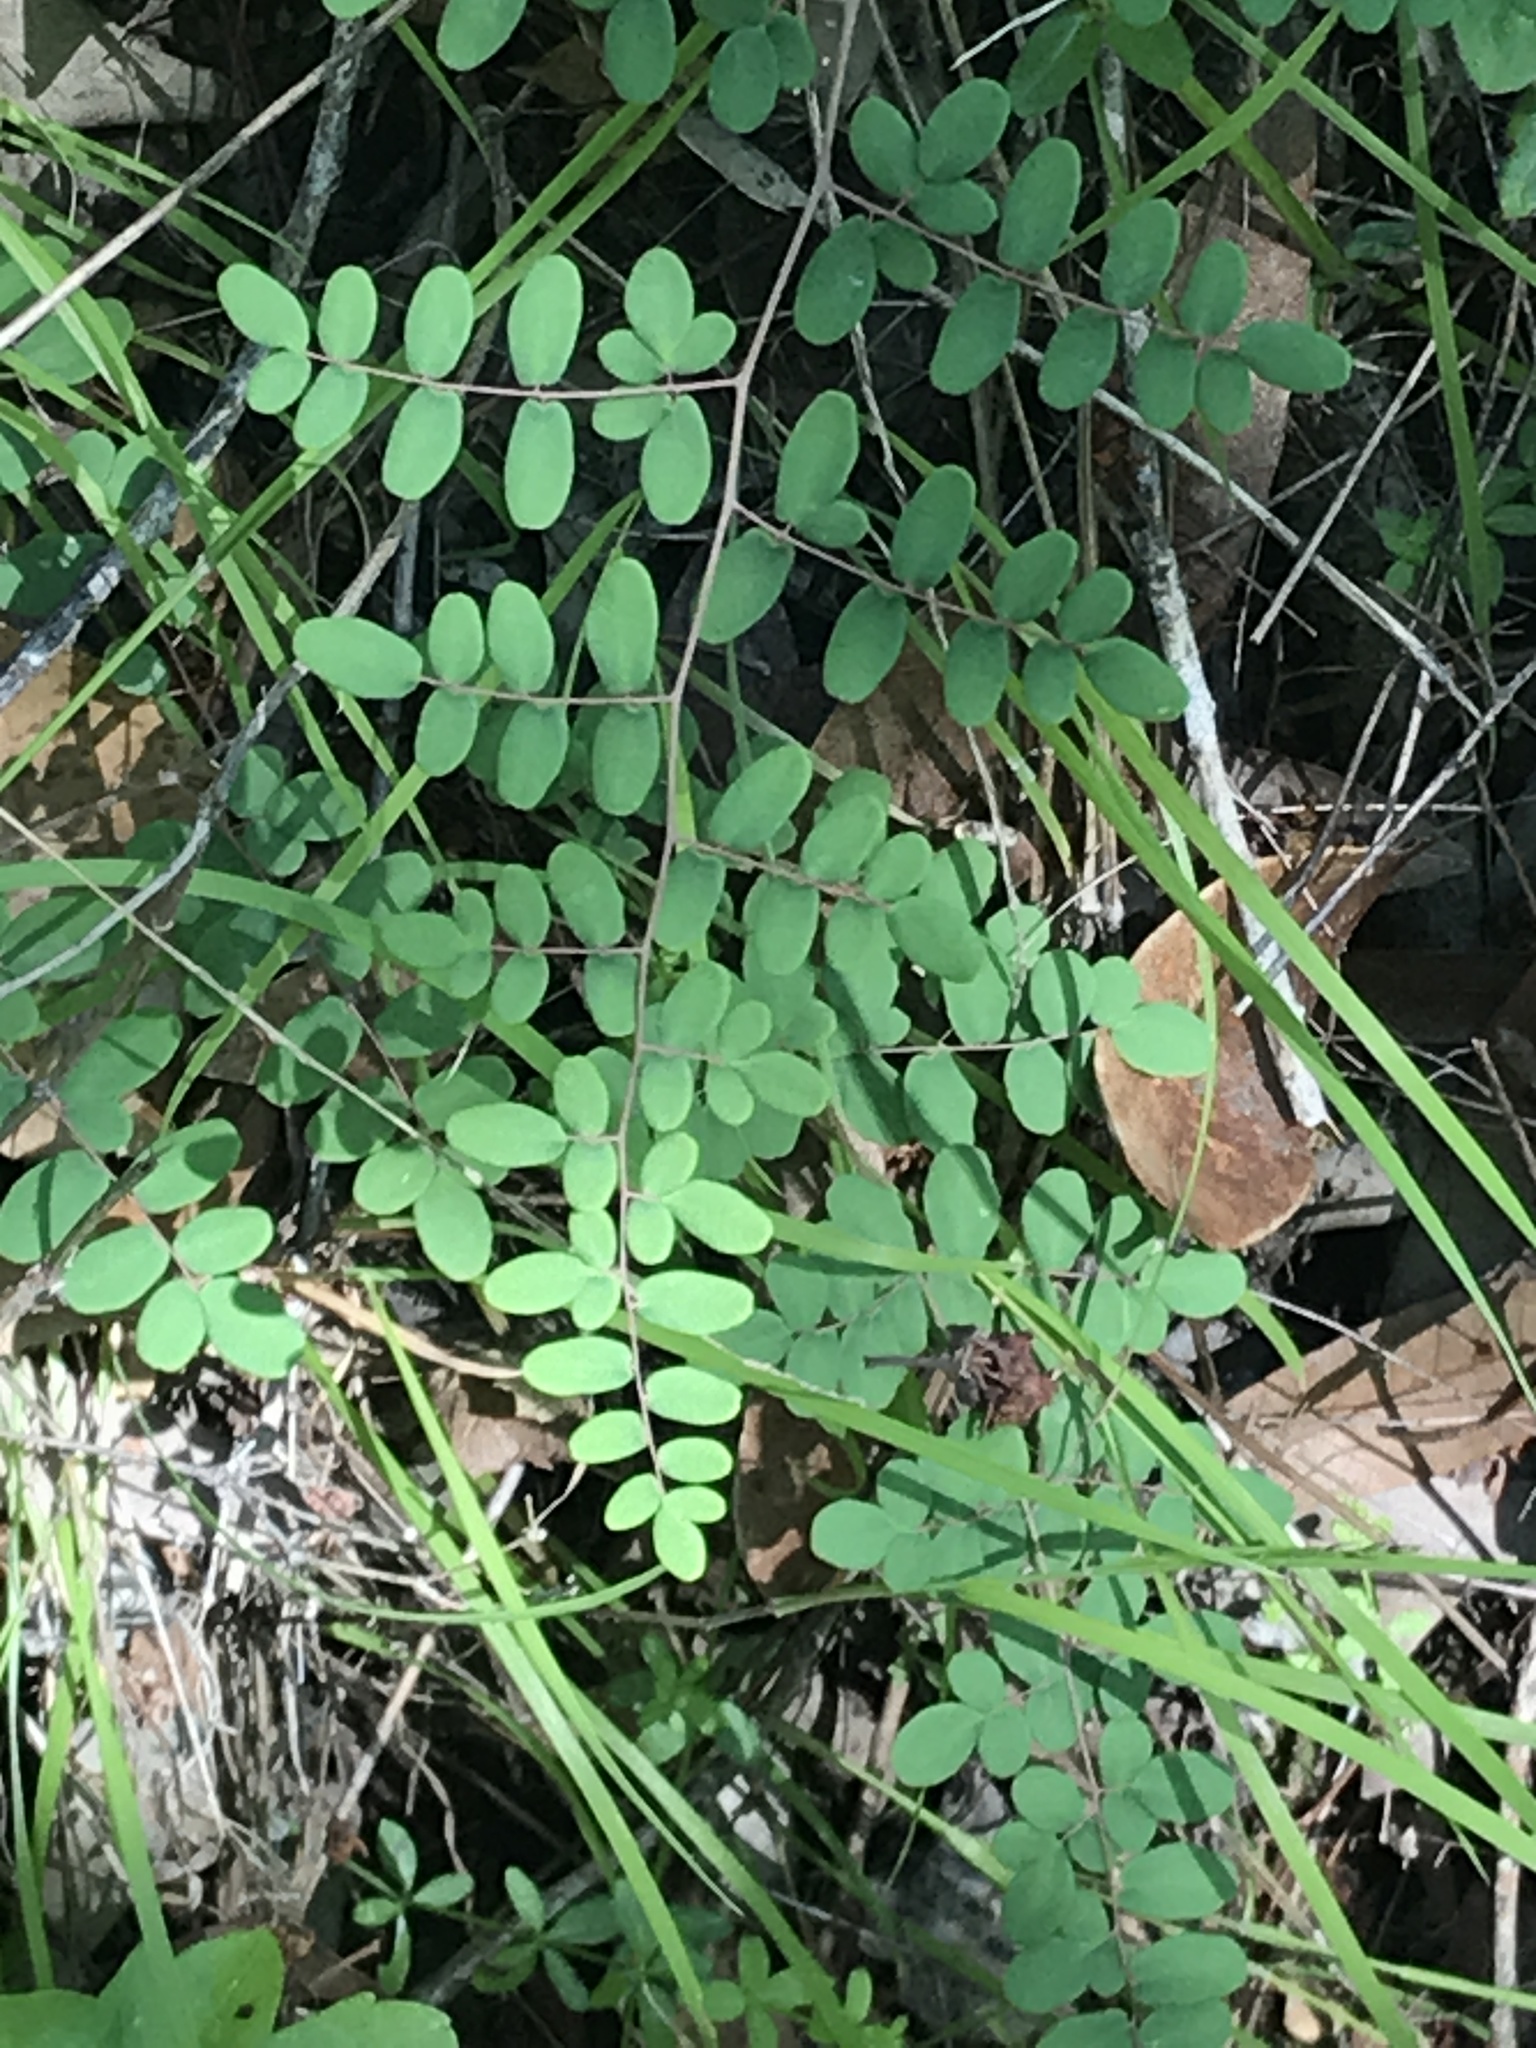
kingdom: Plantae
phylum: Tracheophyta
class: Polypodiopsida
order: Polypodiales
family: Pteridaceae
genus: Pellaea
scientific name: Pellaea andromedifolia
